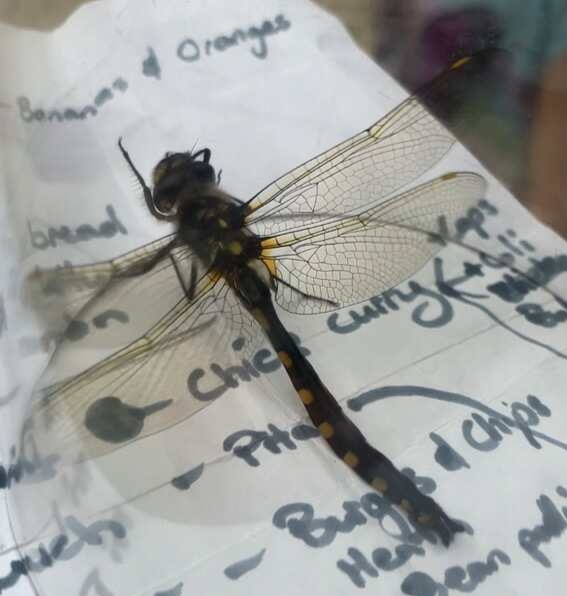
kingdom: Animalia
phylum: Arthropoda
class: Insecta
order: Odonata
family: Corduliidae
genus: Procordulia
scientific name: Procordulia grayi
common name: Yellow spotted dragonfly
